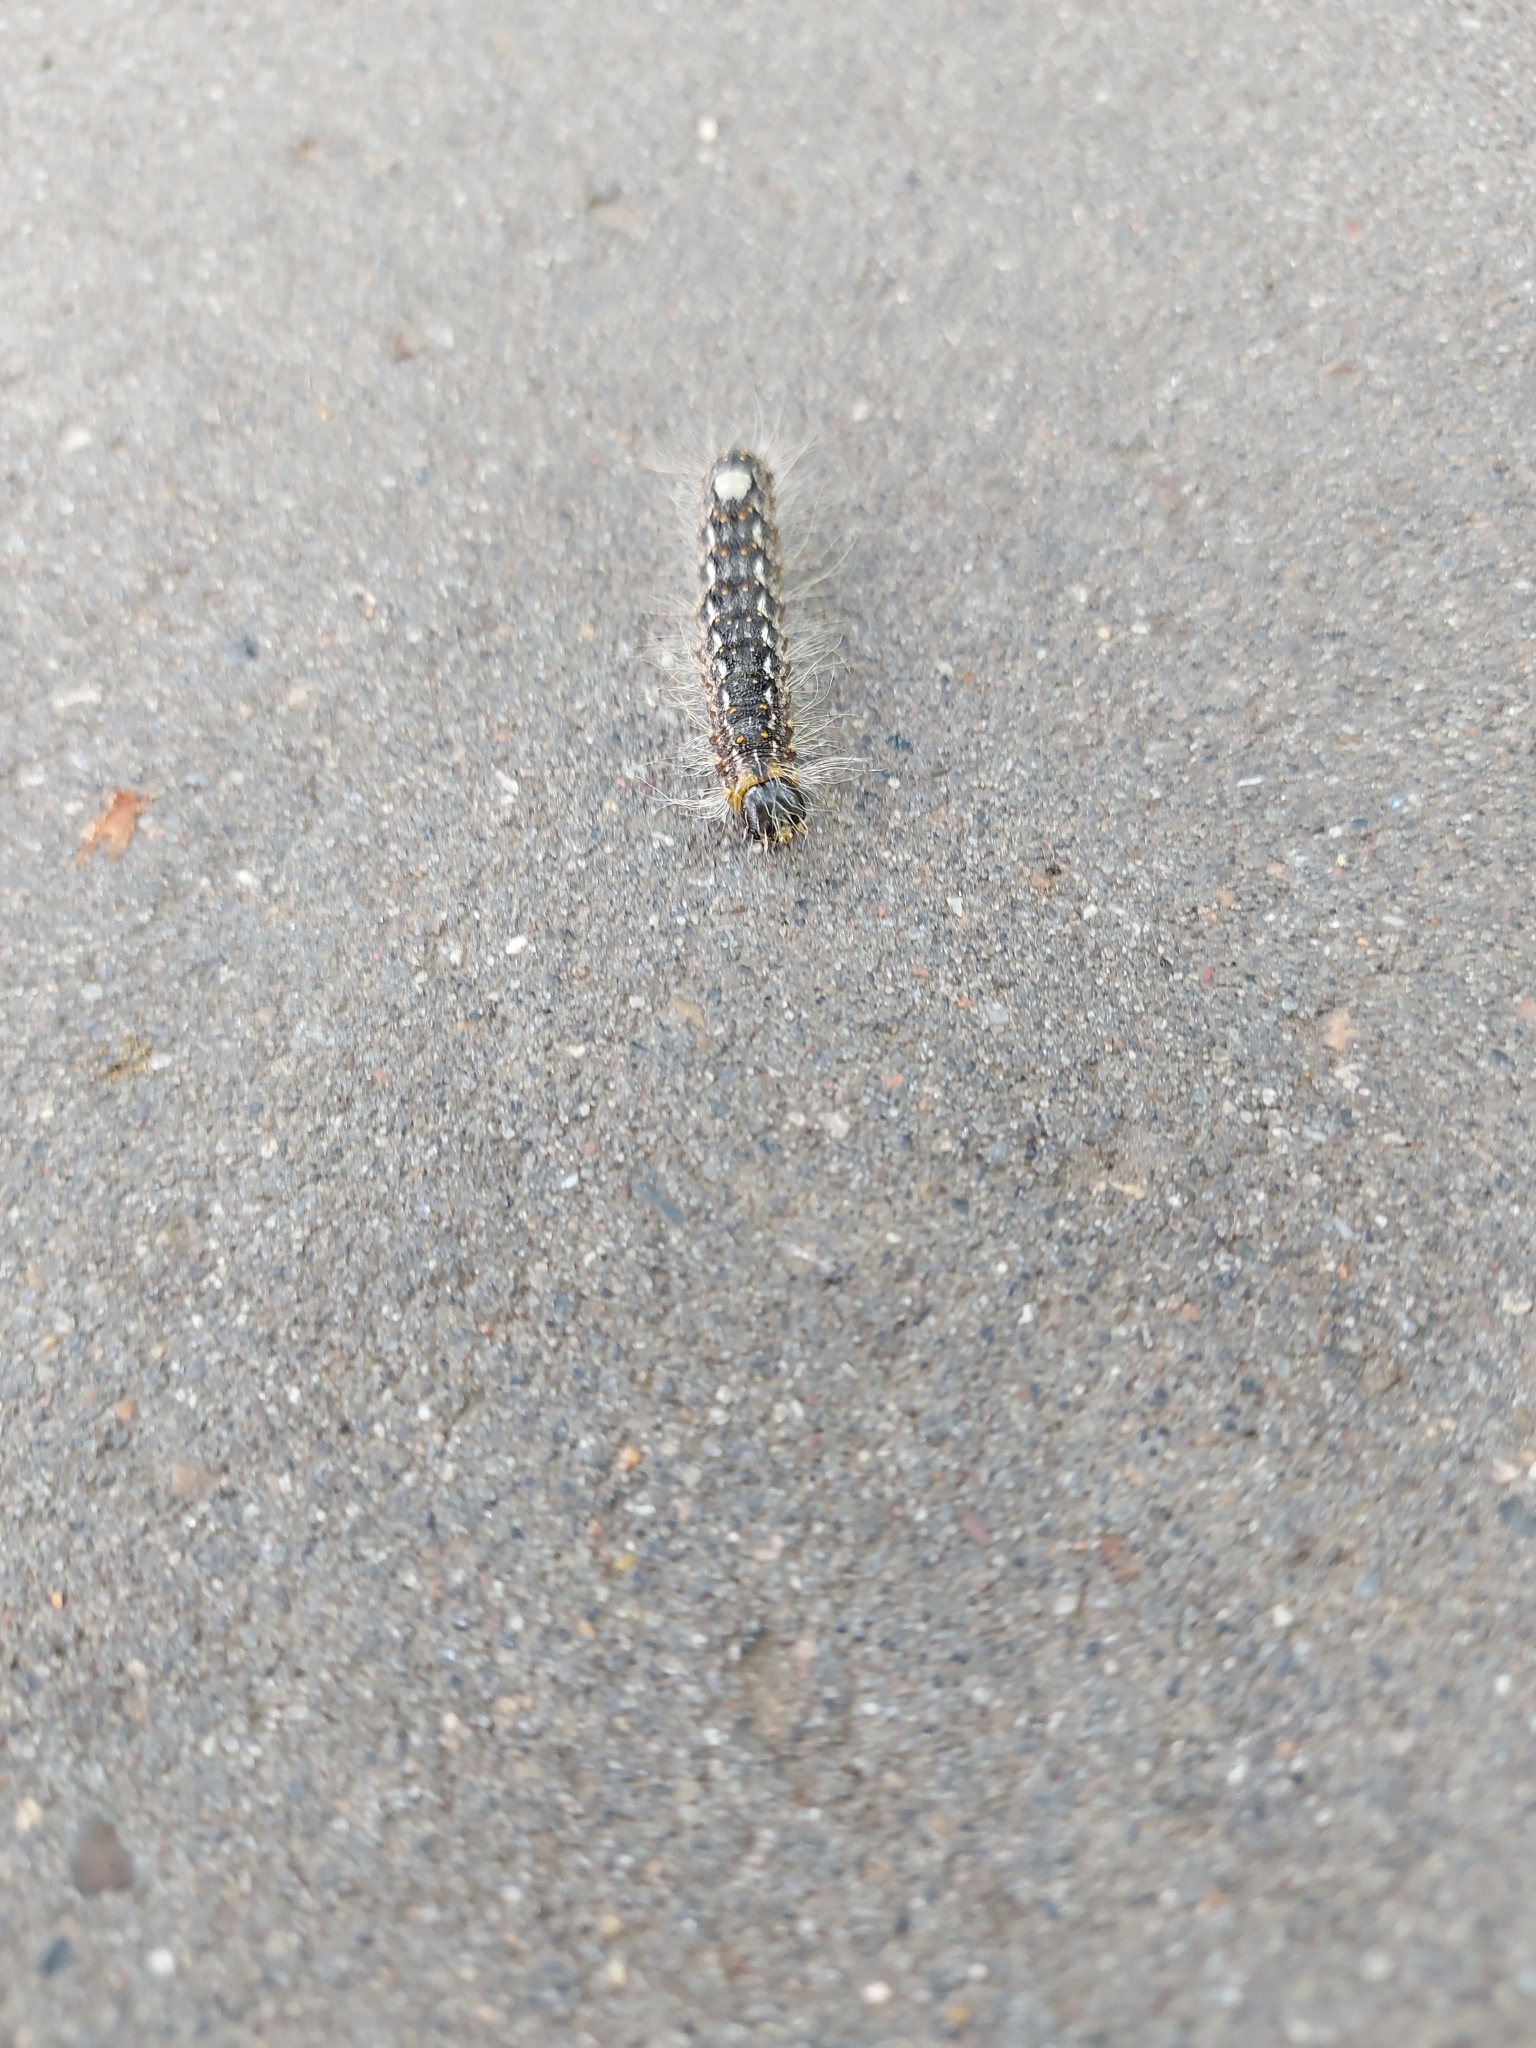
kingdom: Animalia
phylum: Arthropoda
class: Insecta
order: Lepidoptera
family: Noctuidae
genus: Acronicta
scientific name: Acronicta megacephala
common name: Poplar grey
